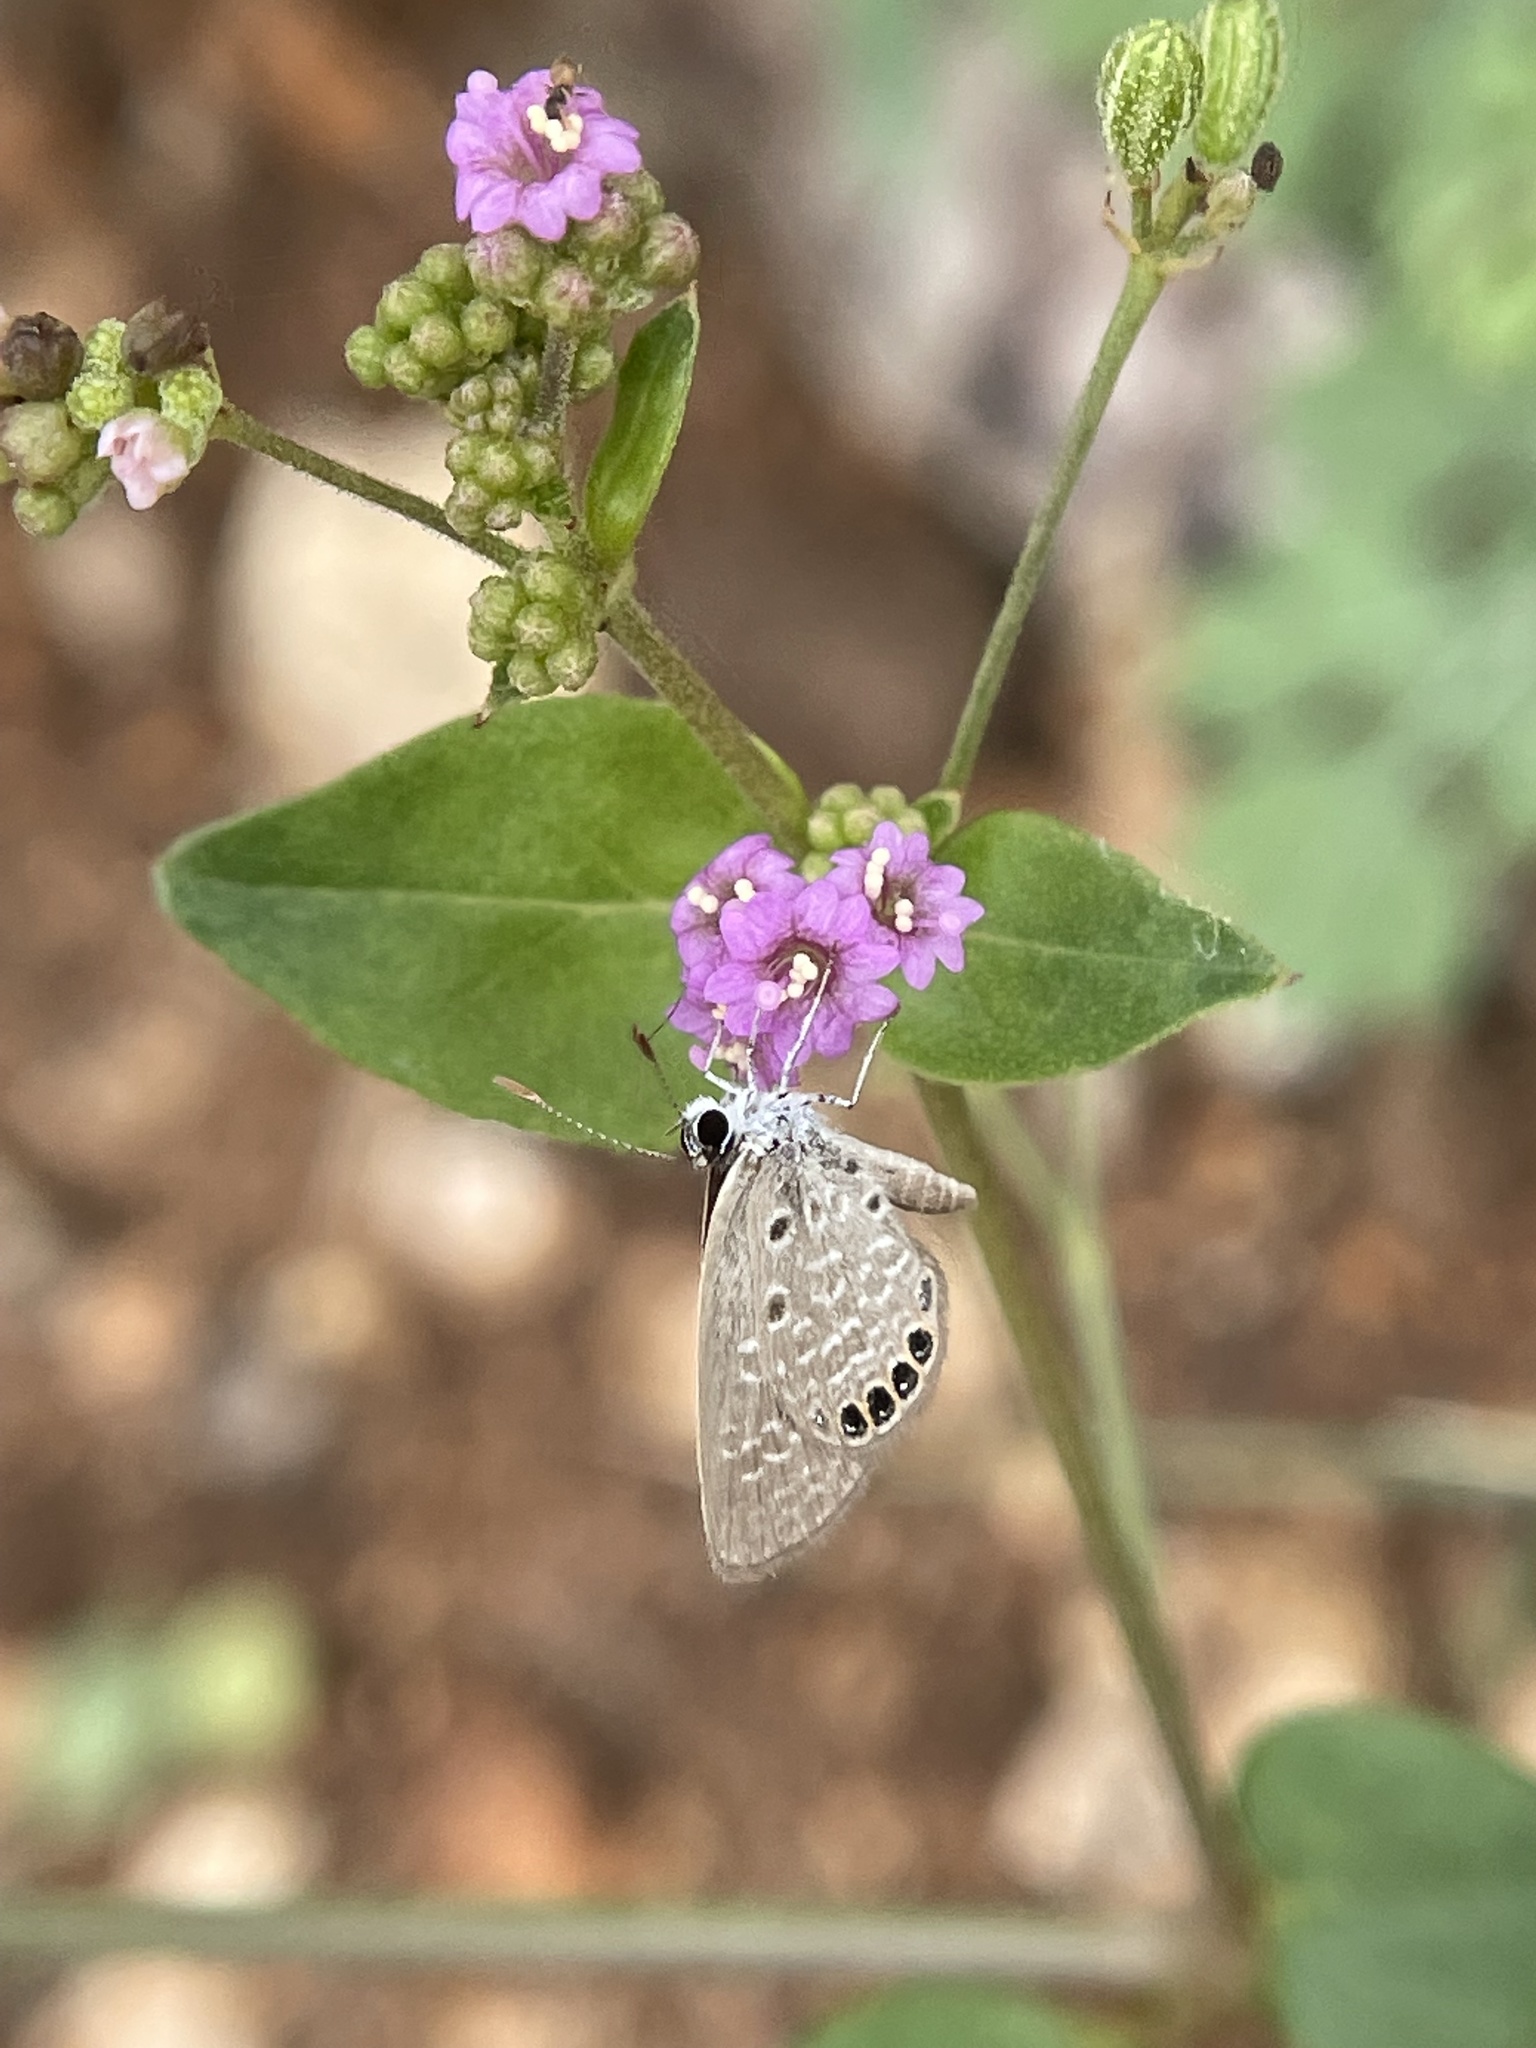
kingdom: Animalia
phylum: Arthropoda
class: Insecta
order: Lepidoptera
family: Lycaenidae
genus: Freyeria
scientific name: Freyeria putli
